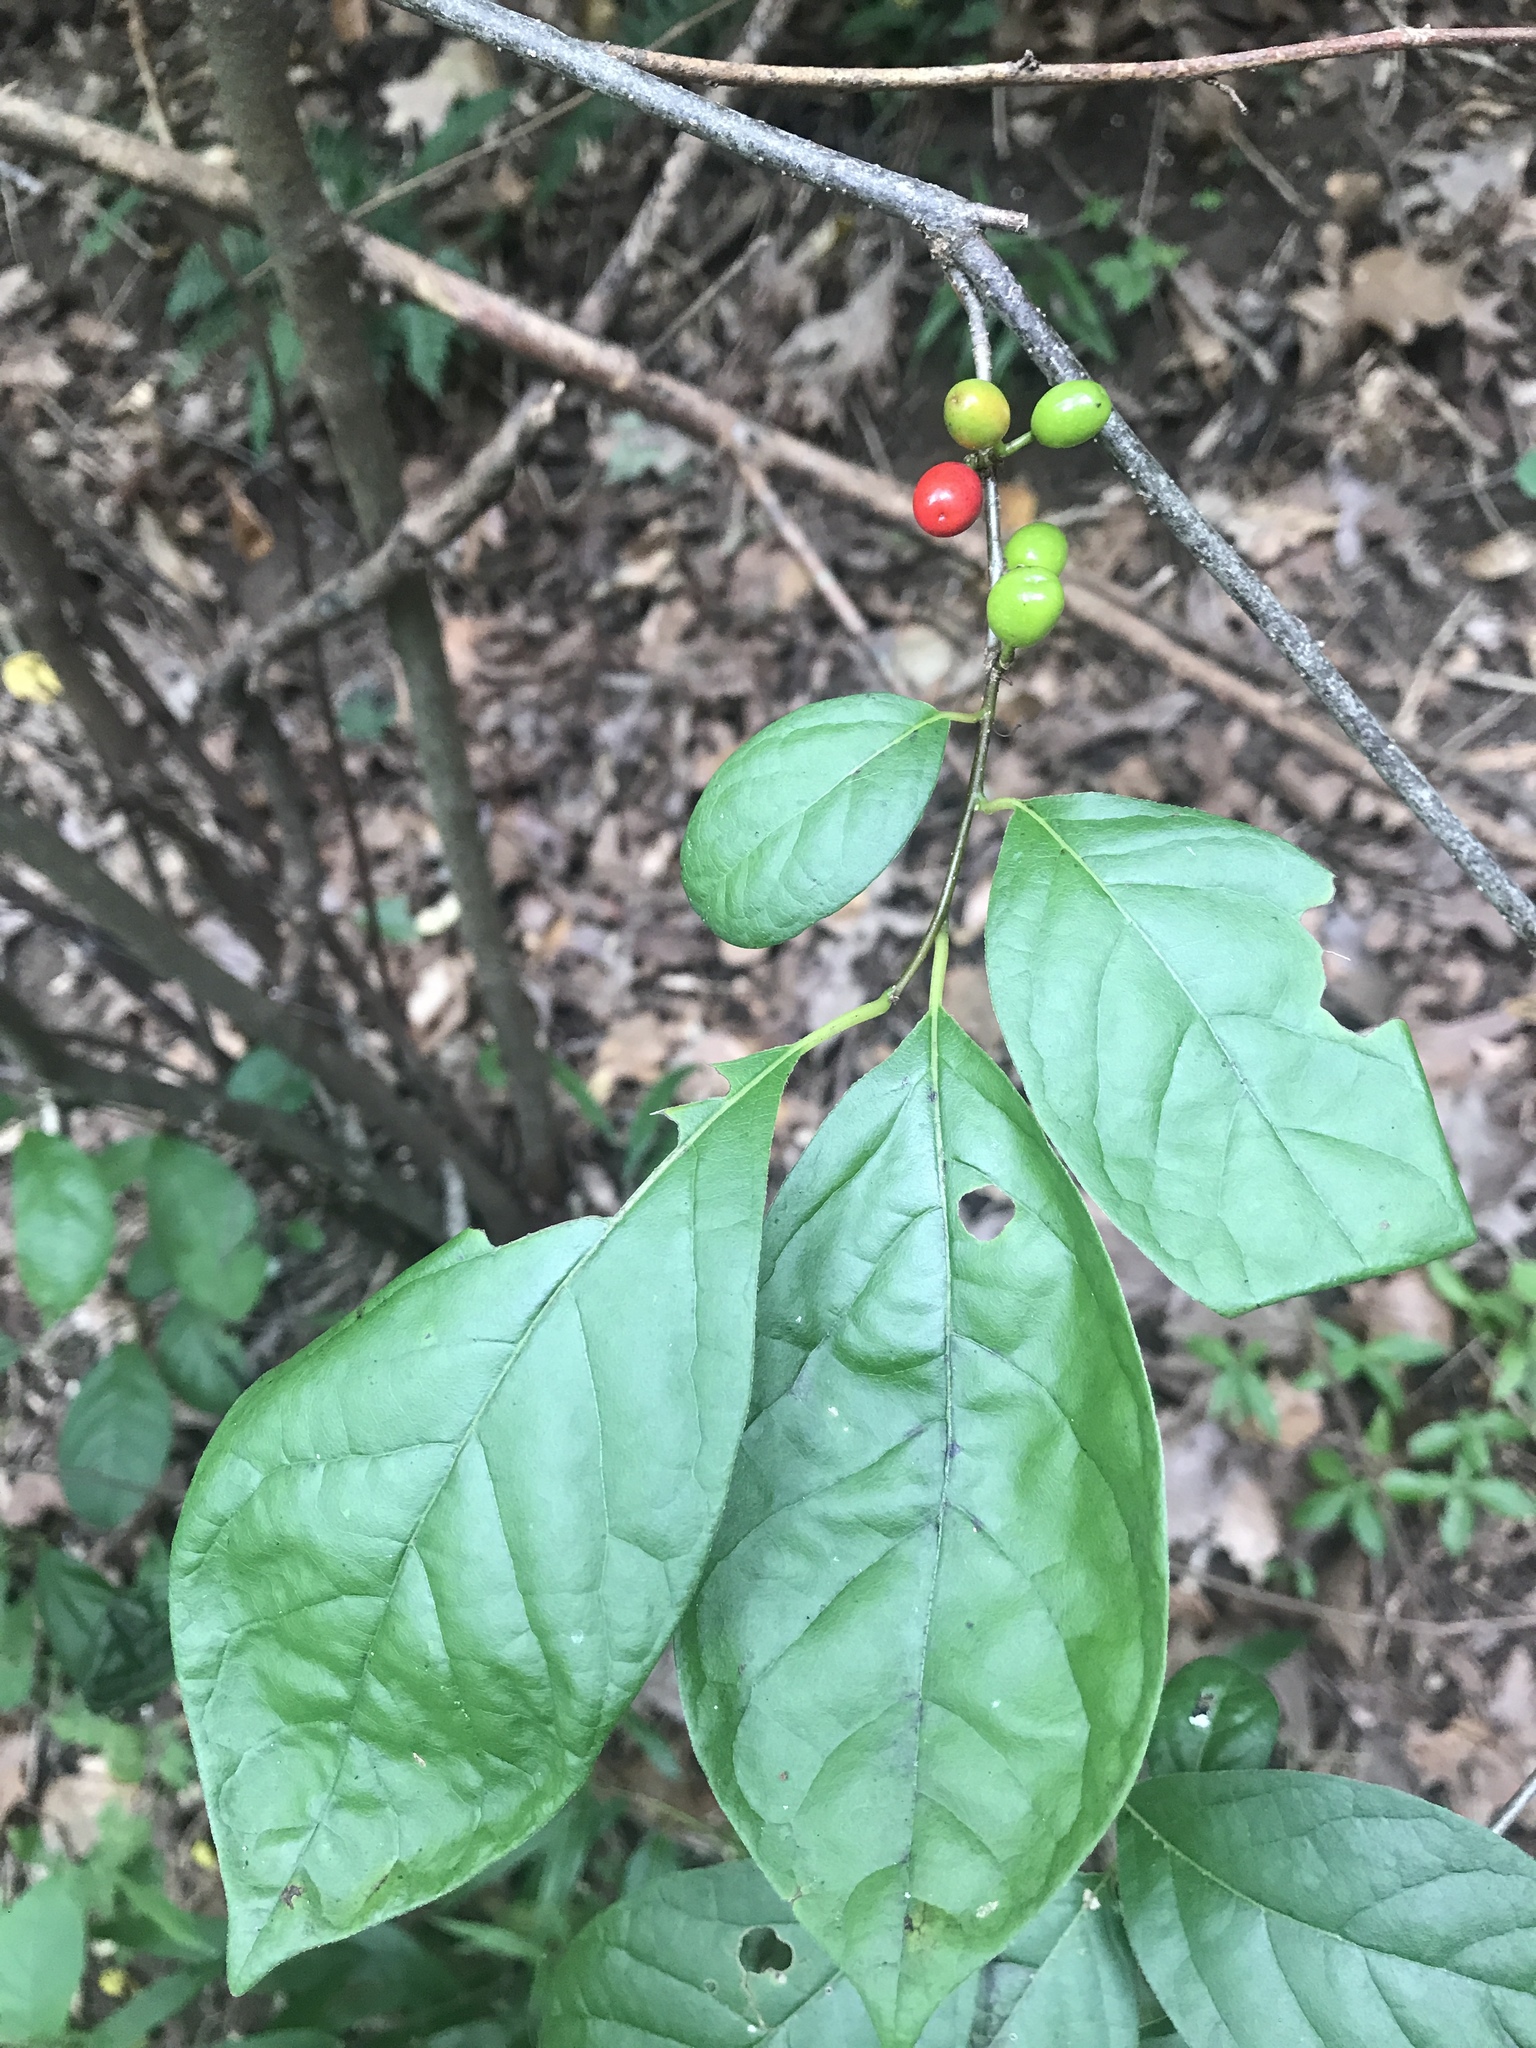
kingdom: Plantae
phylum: Tracheophyta
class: Magnoliopsida
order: Laurales
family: Lauraceae
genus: Lindera
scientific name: Lindera benzoin
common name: Spicebush
